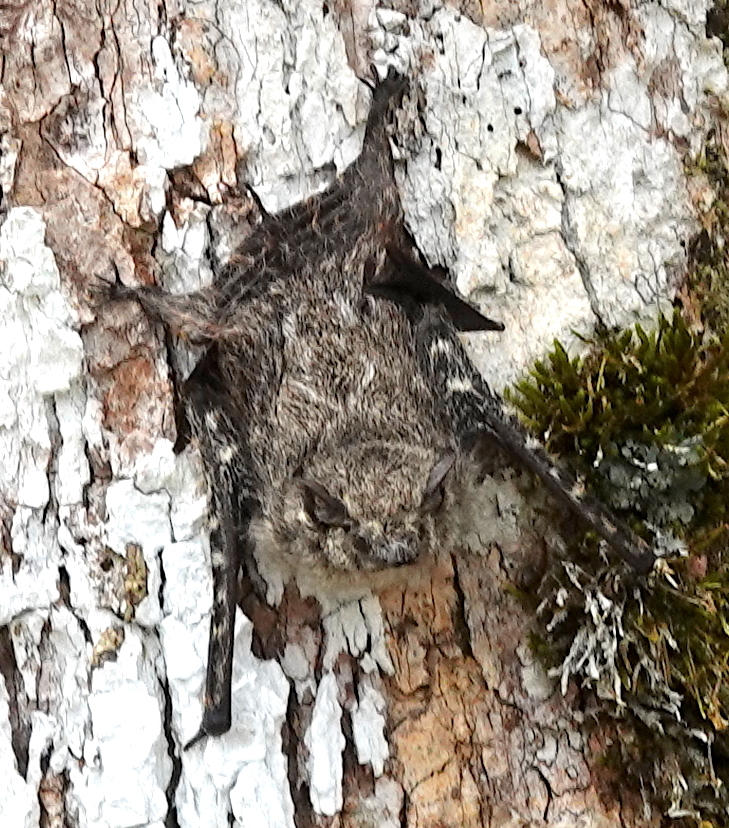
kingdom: Animalia
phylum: Chordata
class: Mammalia
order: Chiroptera
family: Emballonuridae
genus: Rhynchonycteris
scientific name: Rhynchonycteris naso
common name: Proboscis bat
